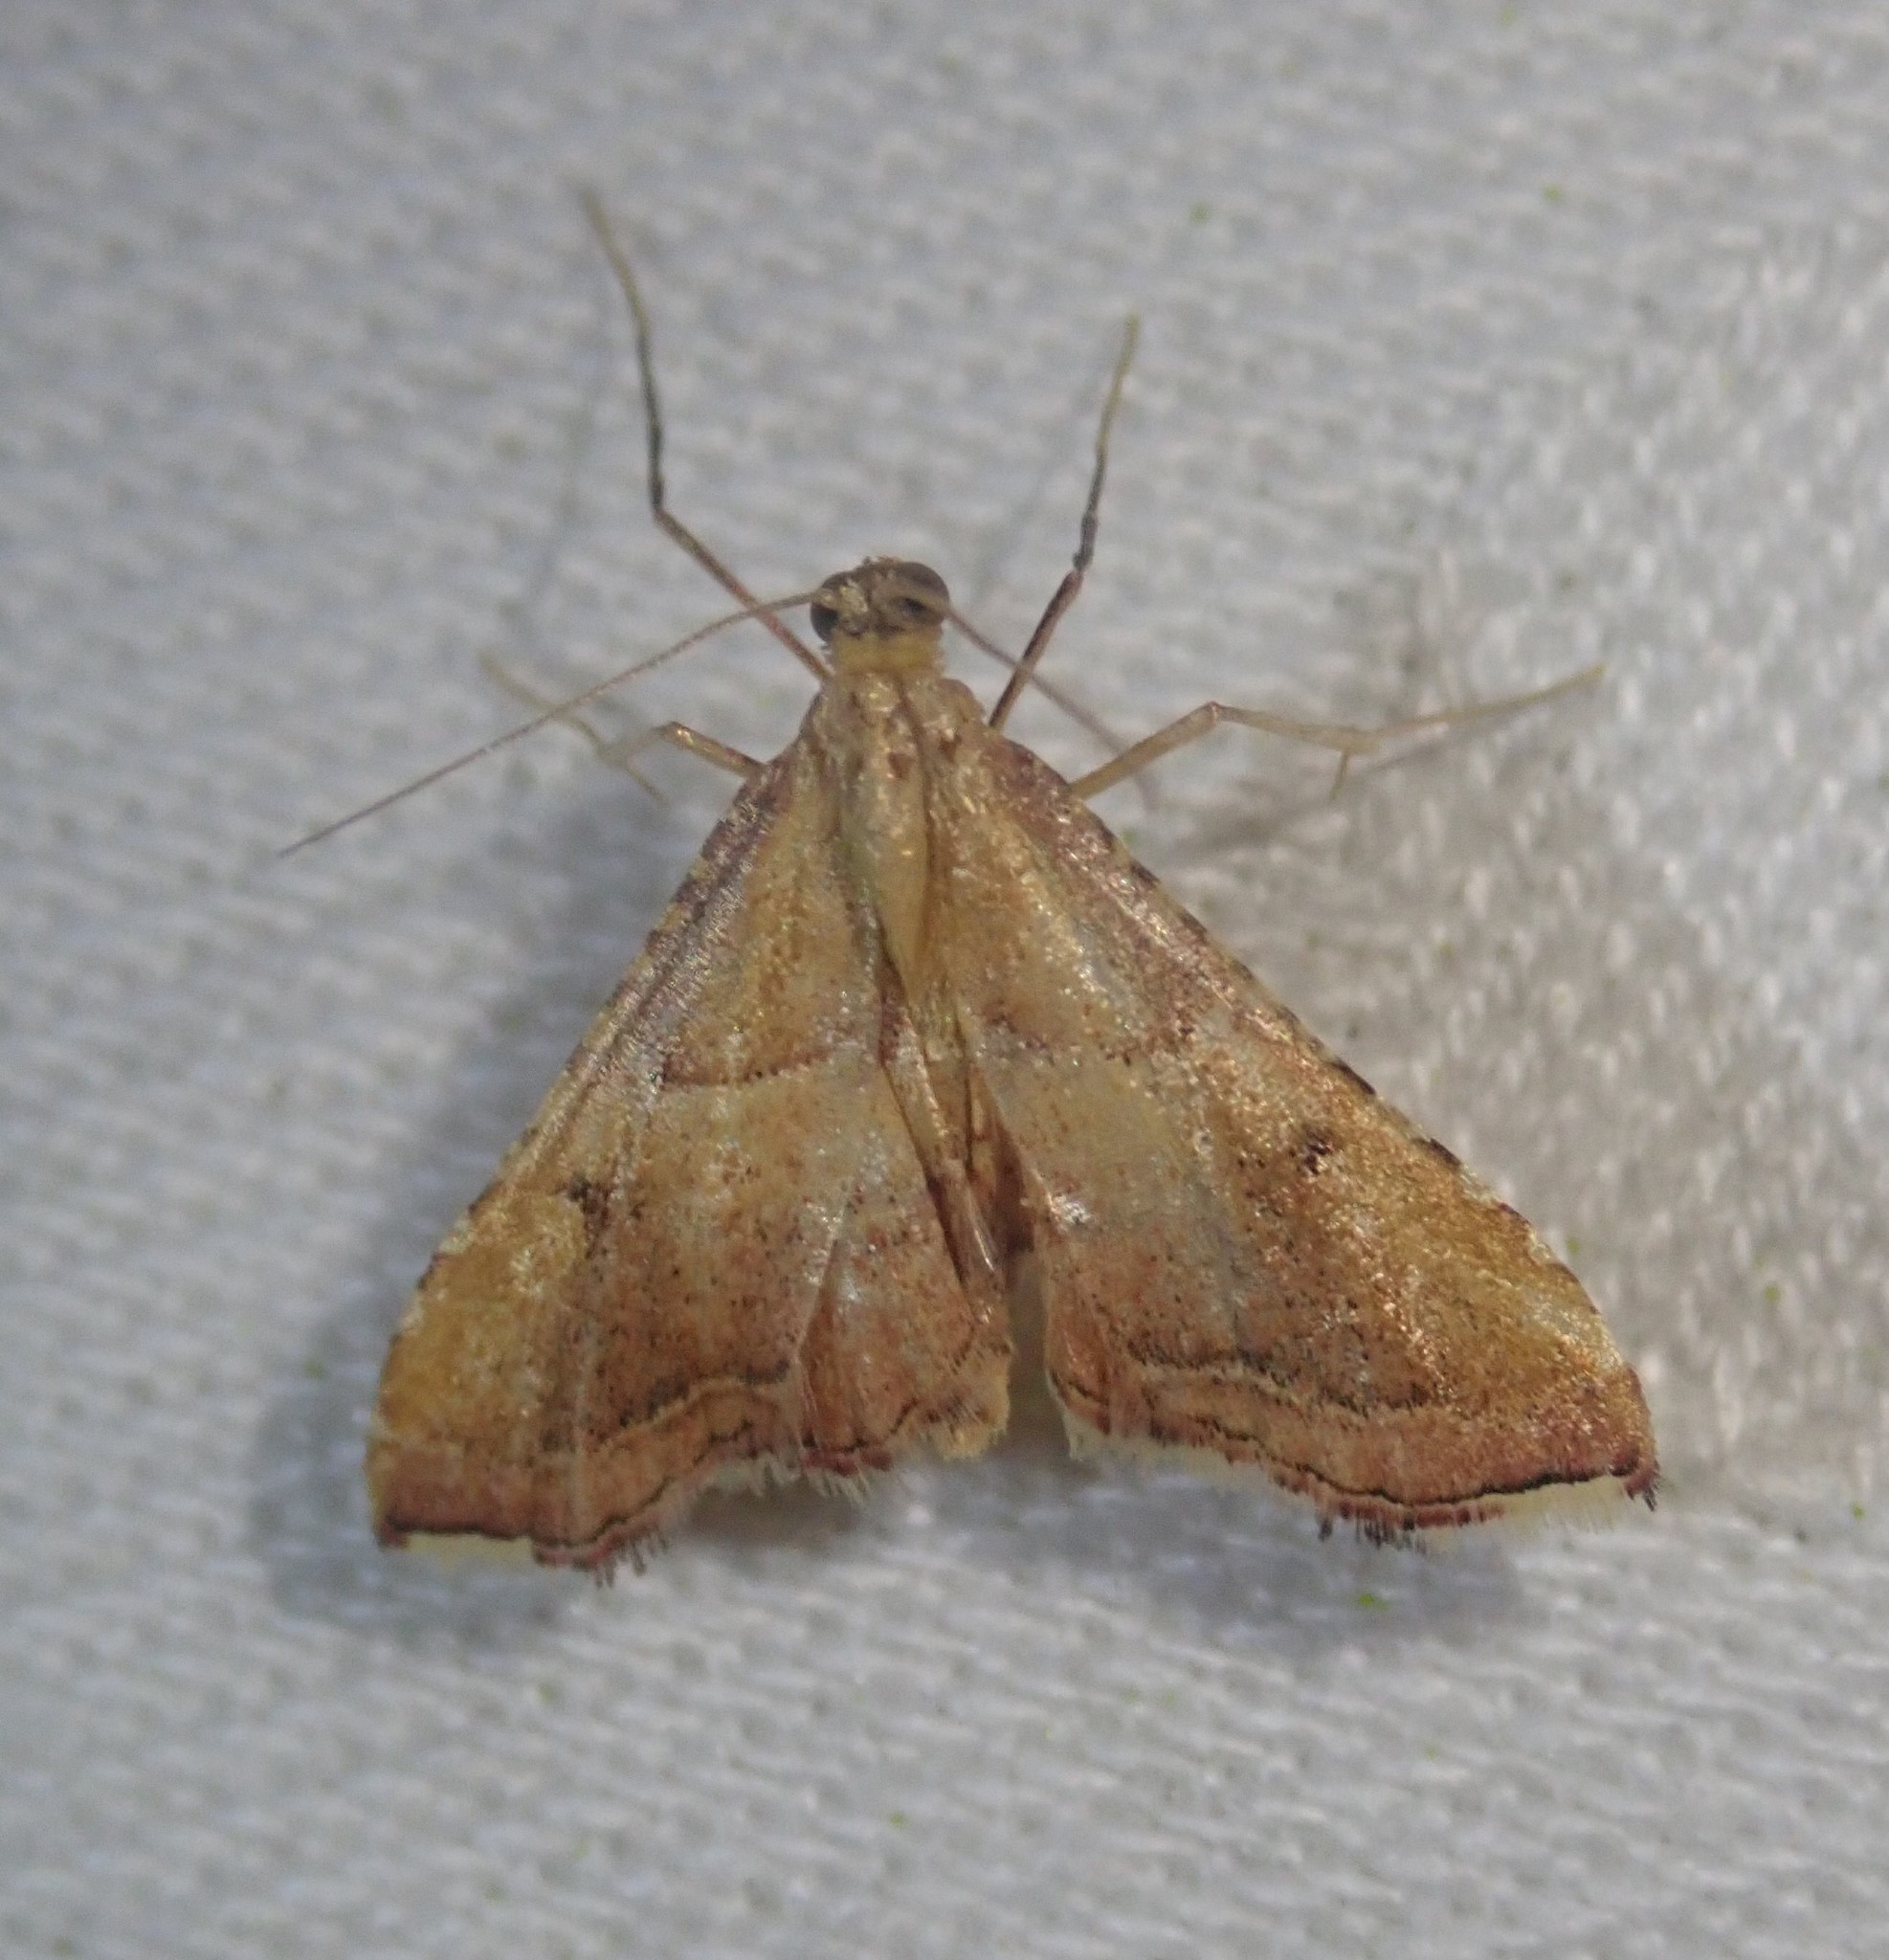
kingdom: Animalia
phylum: Arthropoda
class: Insecta
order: Lepidoptera
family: Pyralidae
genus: Endotricha
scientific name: Endotricha flammealis
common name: Rosy tabby
